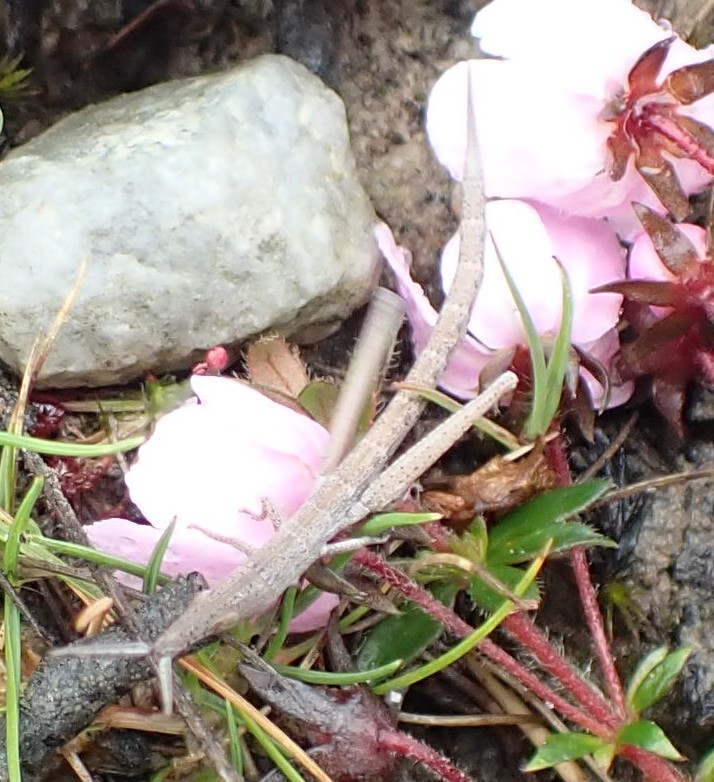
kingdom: Animalia
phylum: Arthropoda
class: Insecta
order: Orthoptera
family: Pyrgomorphidae
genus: Psednura
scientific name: Psednura pedestris
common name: Common psednura
